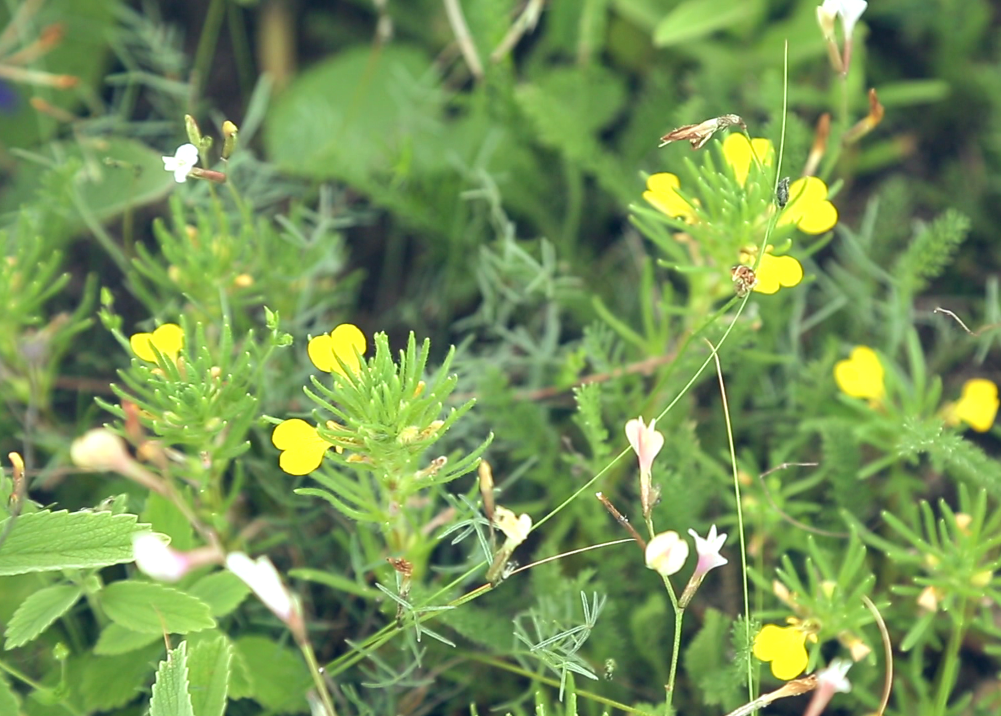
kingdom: Plantae
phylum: Tracheophyta
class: Magnoliopsida
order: Lamiales
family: Lamiaceae
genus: Ajuga
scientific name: Ajuga chamaepitys
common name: Ground-pine
